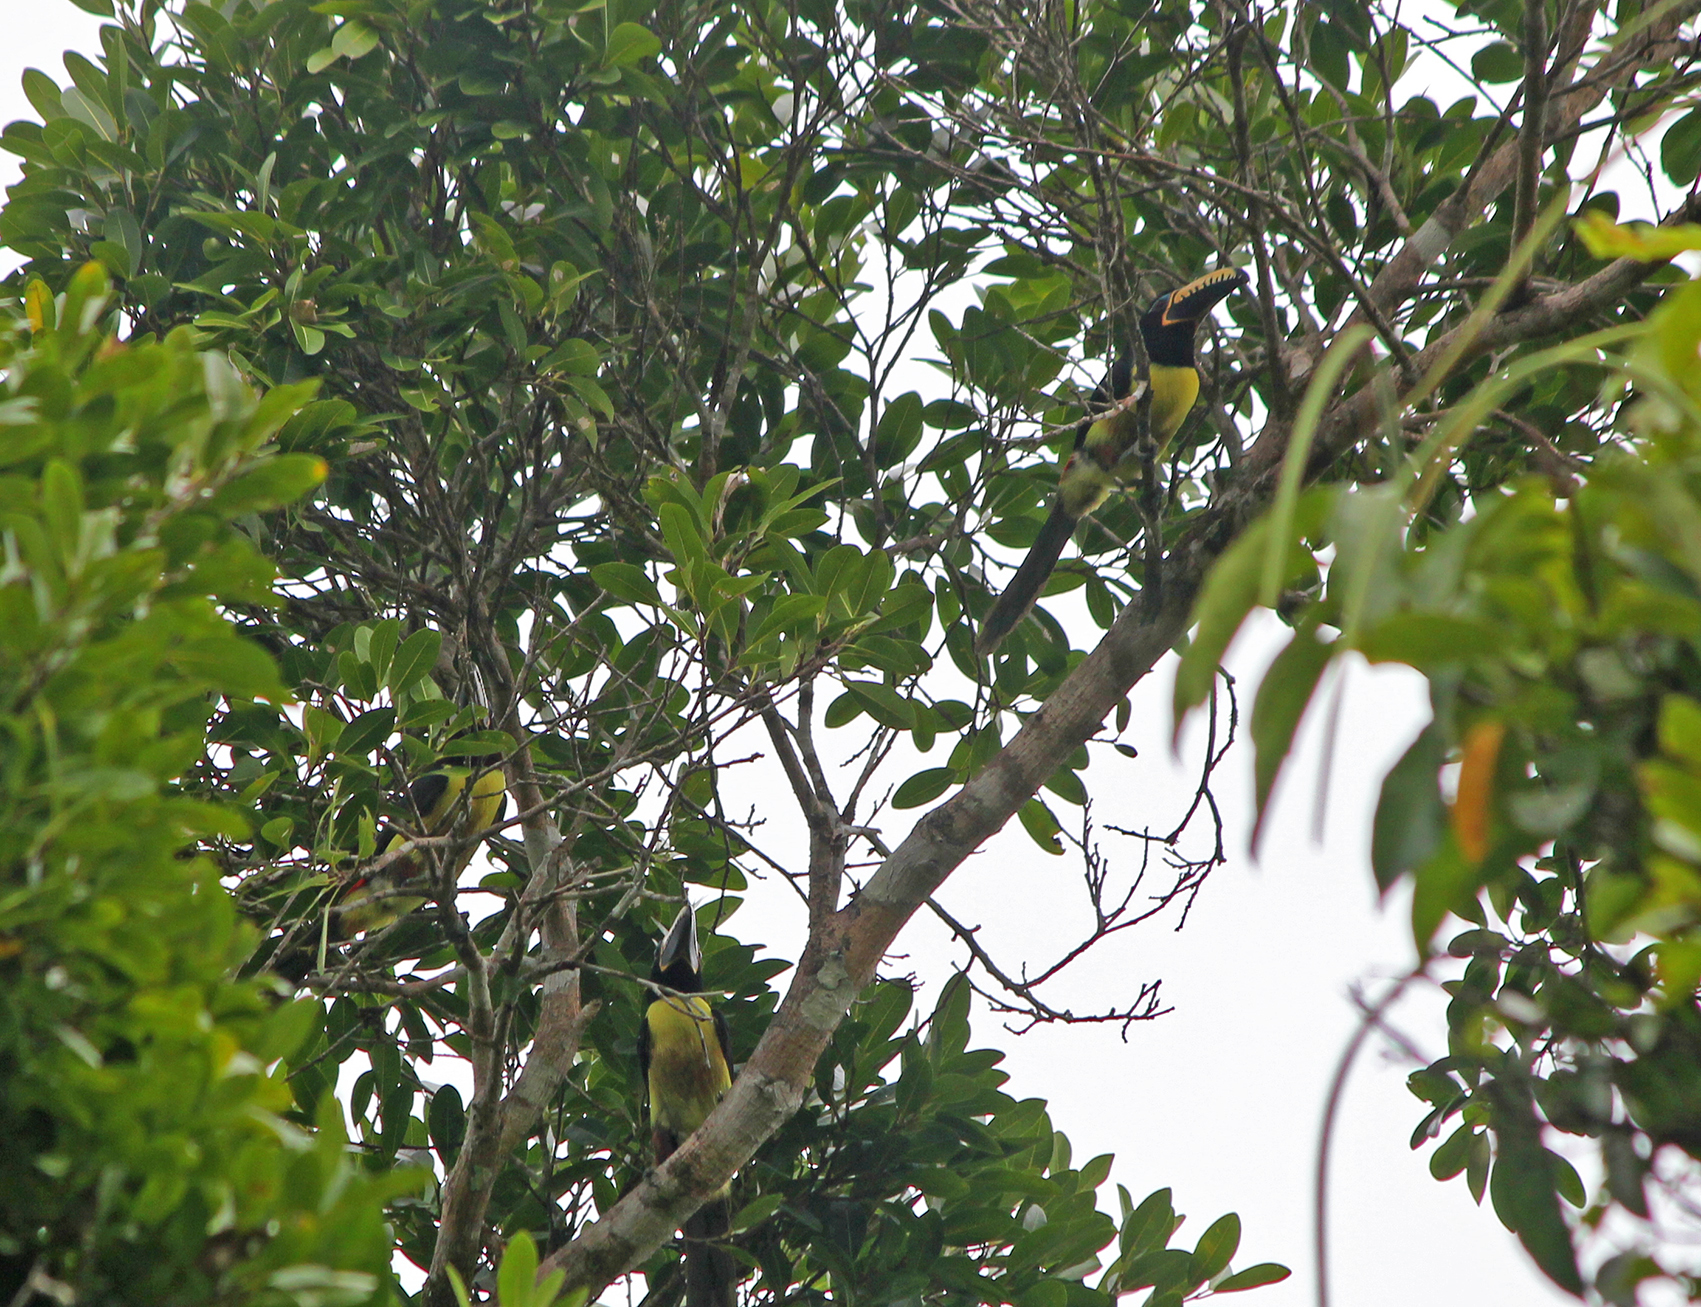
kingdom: Animalia
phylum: Chordata
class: Aves
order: Piciformes
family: Ramphastidae
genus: Pteroglossus
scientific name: Pteroglossus inscriptus
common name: Lettered aracari
